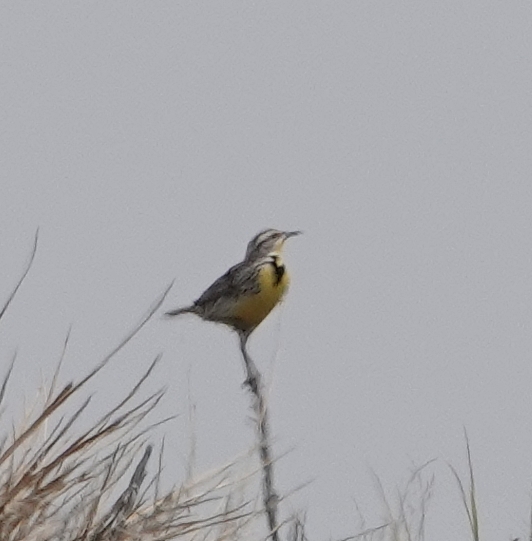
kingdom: Animalia
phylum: Chordata
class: Aves
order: Passeriformes
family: Icteridae
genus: Sturnella
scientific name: Sturnella neglecta
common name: Western meadowlark
